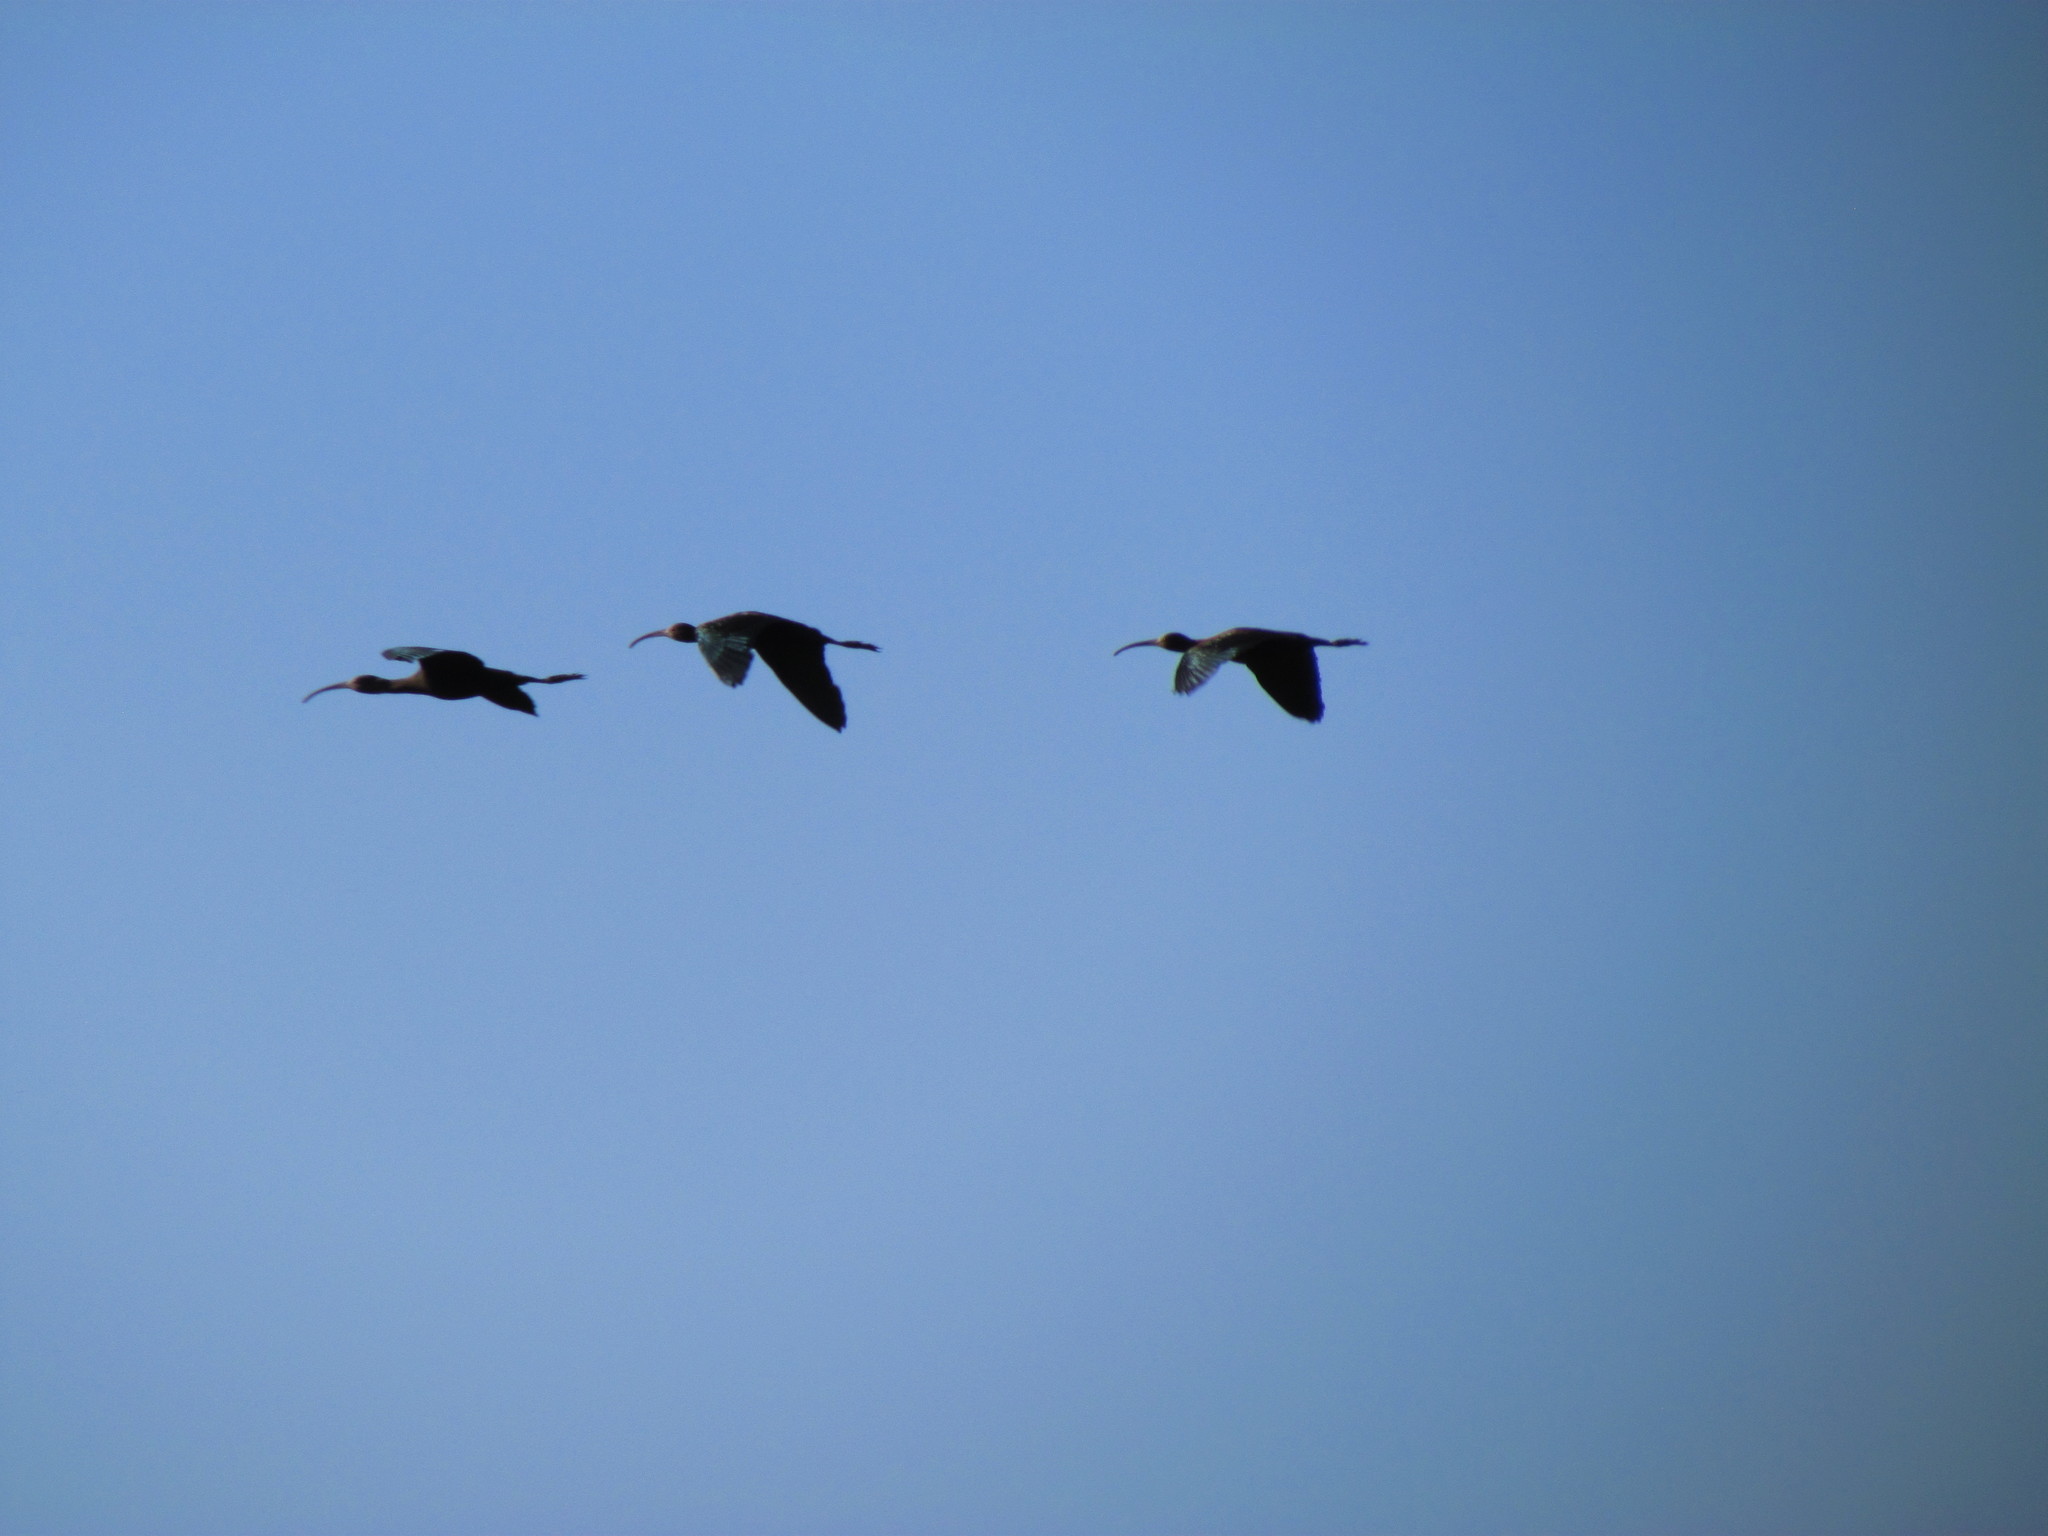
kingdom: Animalia
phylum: Chordata
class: Aves
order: Pelecaniformes
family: Threskiornithidae
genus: Phimosus
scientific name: Phimosus infuscatus
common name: Bare-faced ibis
